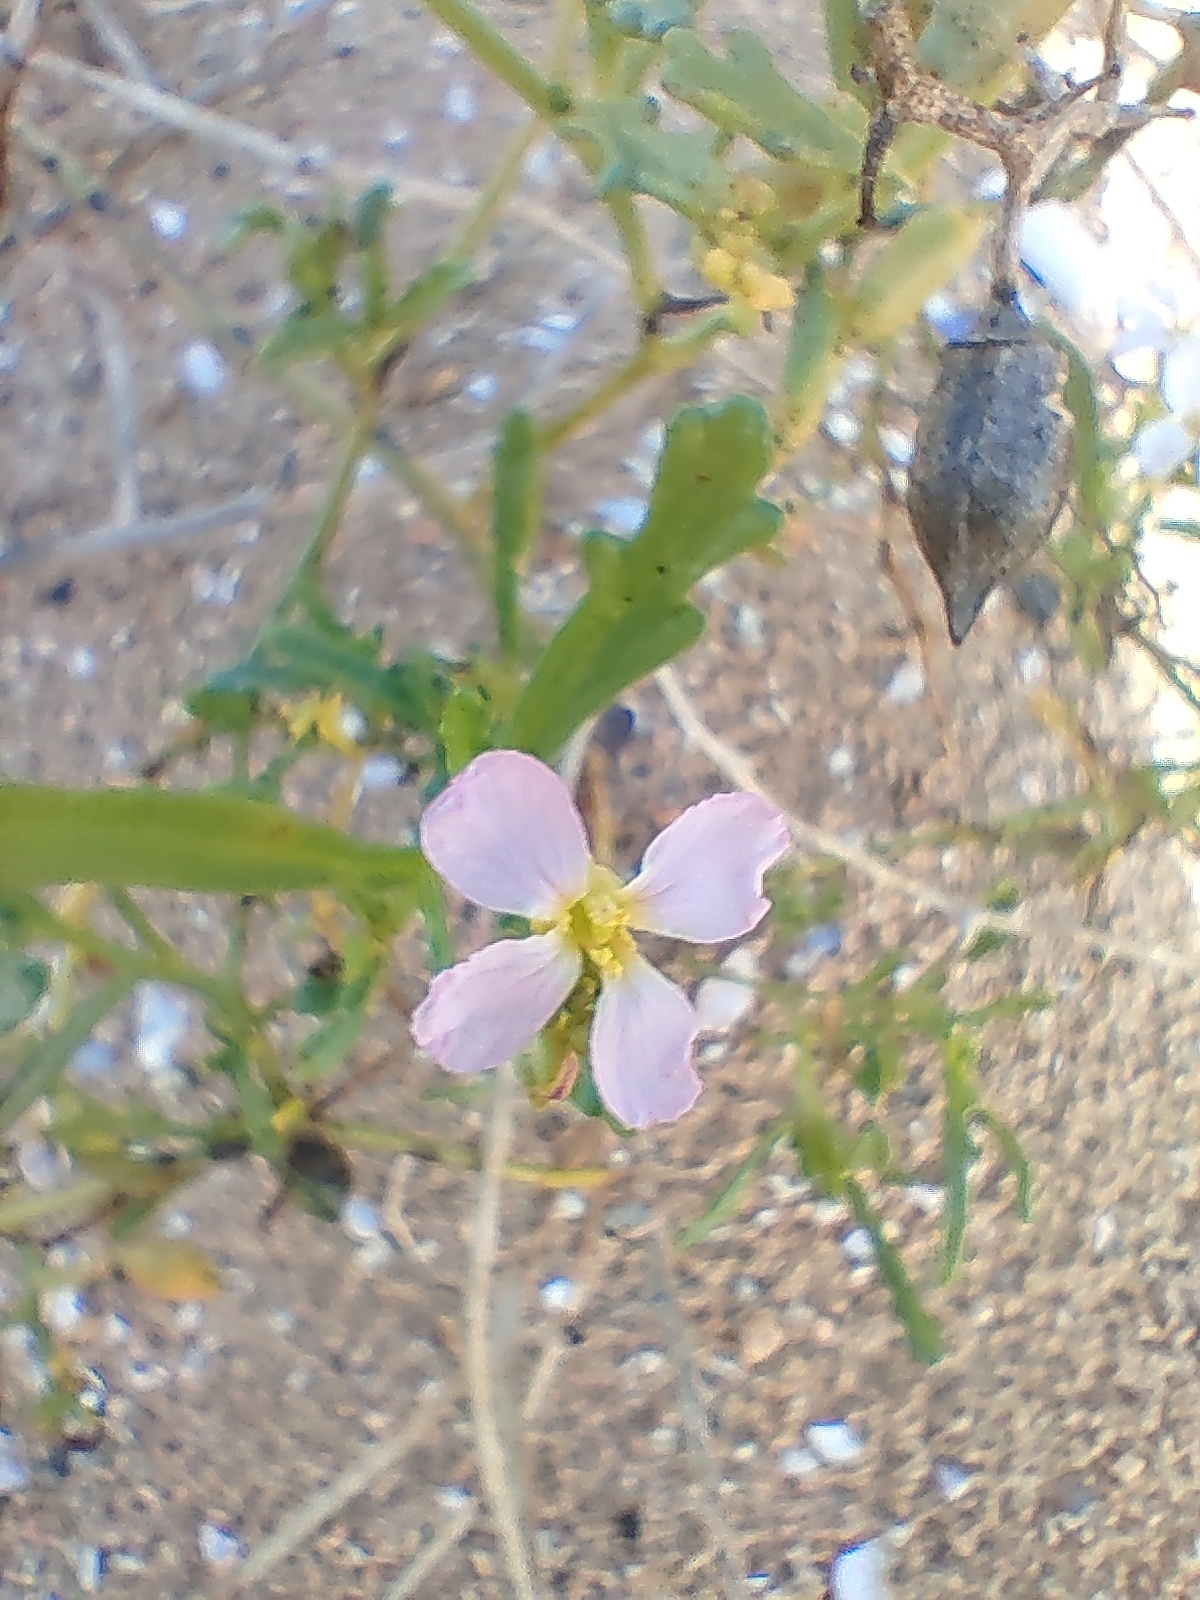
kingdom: Plantae
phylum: Tracheophyta
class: Magnoliopsida
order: Brassicales
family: Brassicaceae
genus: Cakile
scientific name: Cakile maritima
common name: Sea rocket
